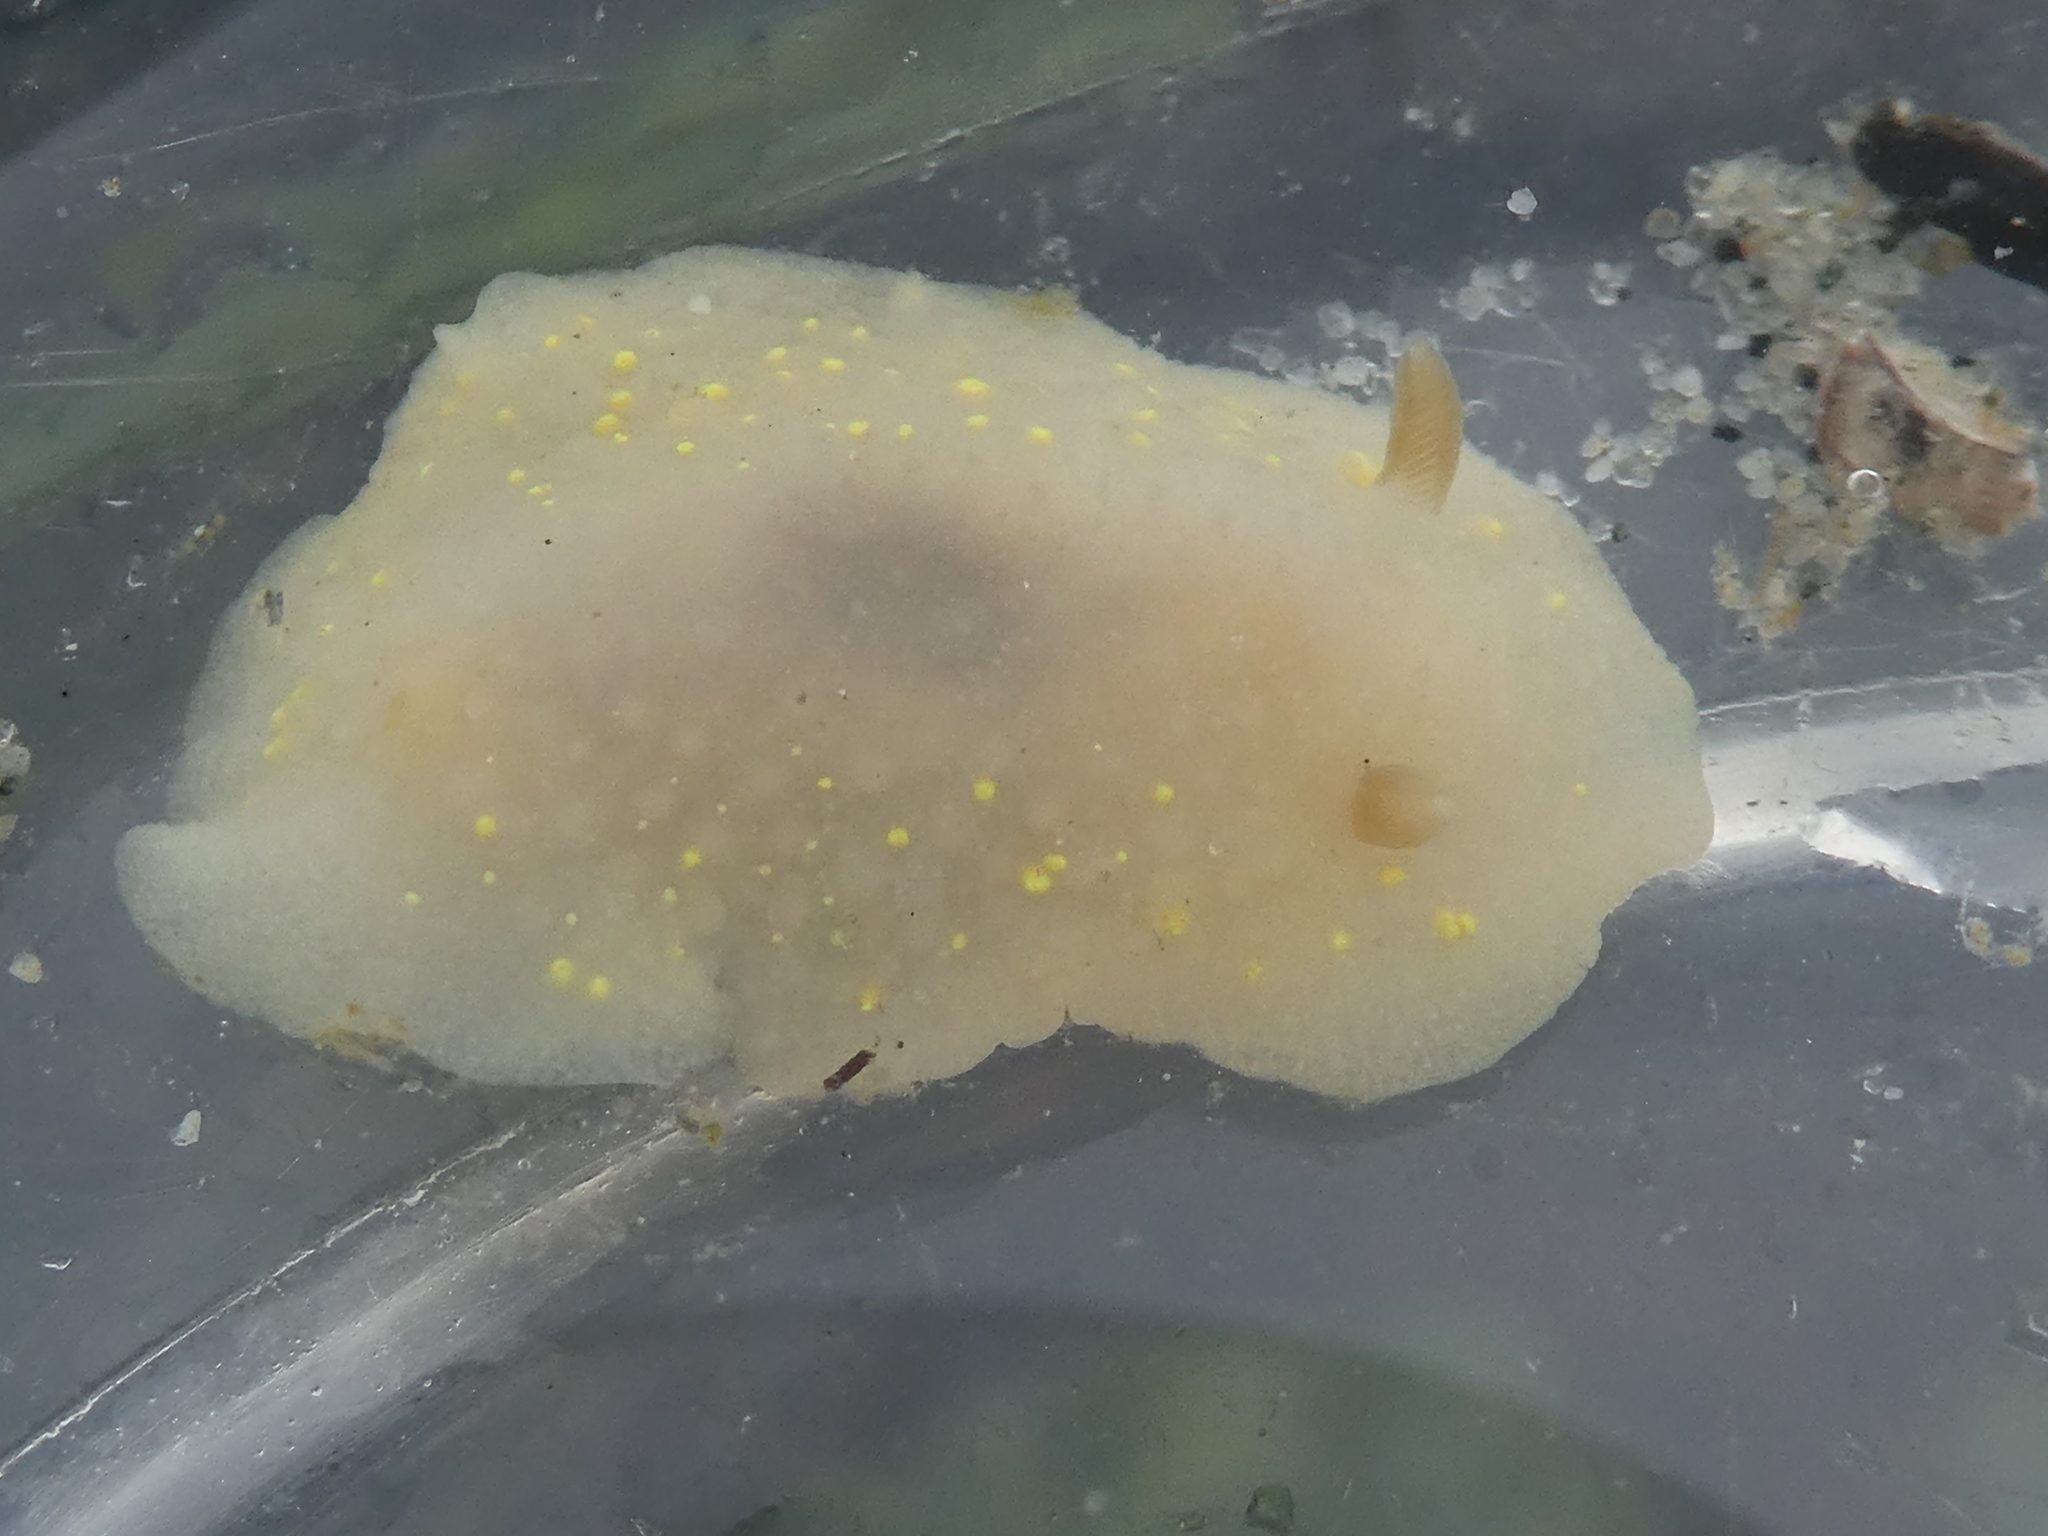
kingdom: Animalia
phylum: Mollusca
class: Gastropoda
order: Nudibranchia
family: Cadlinidae
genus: Cadlina
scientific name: Cadlina modesta
